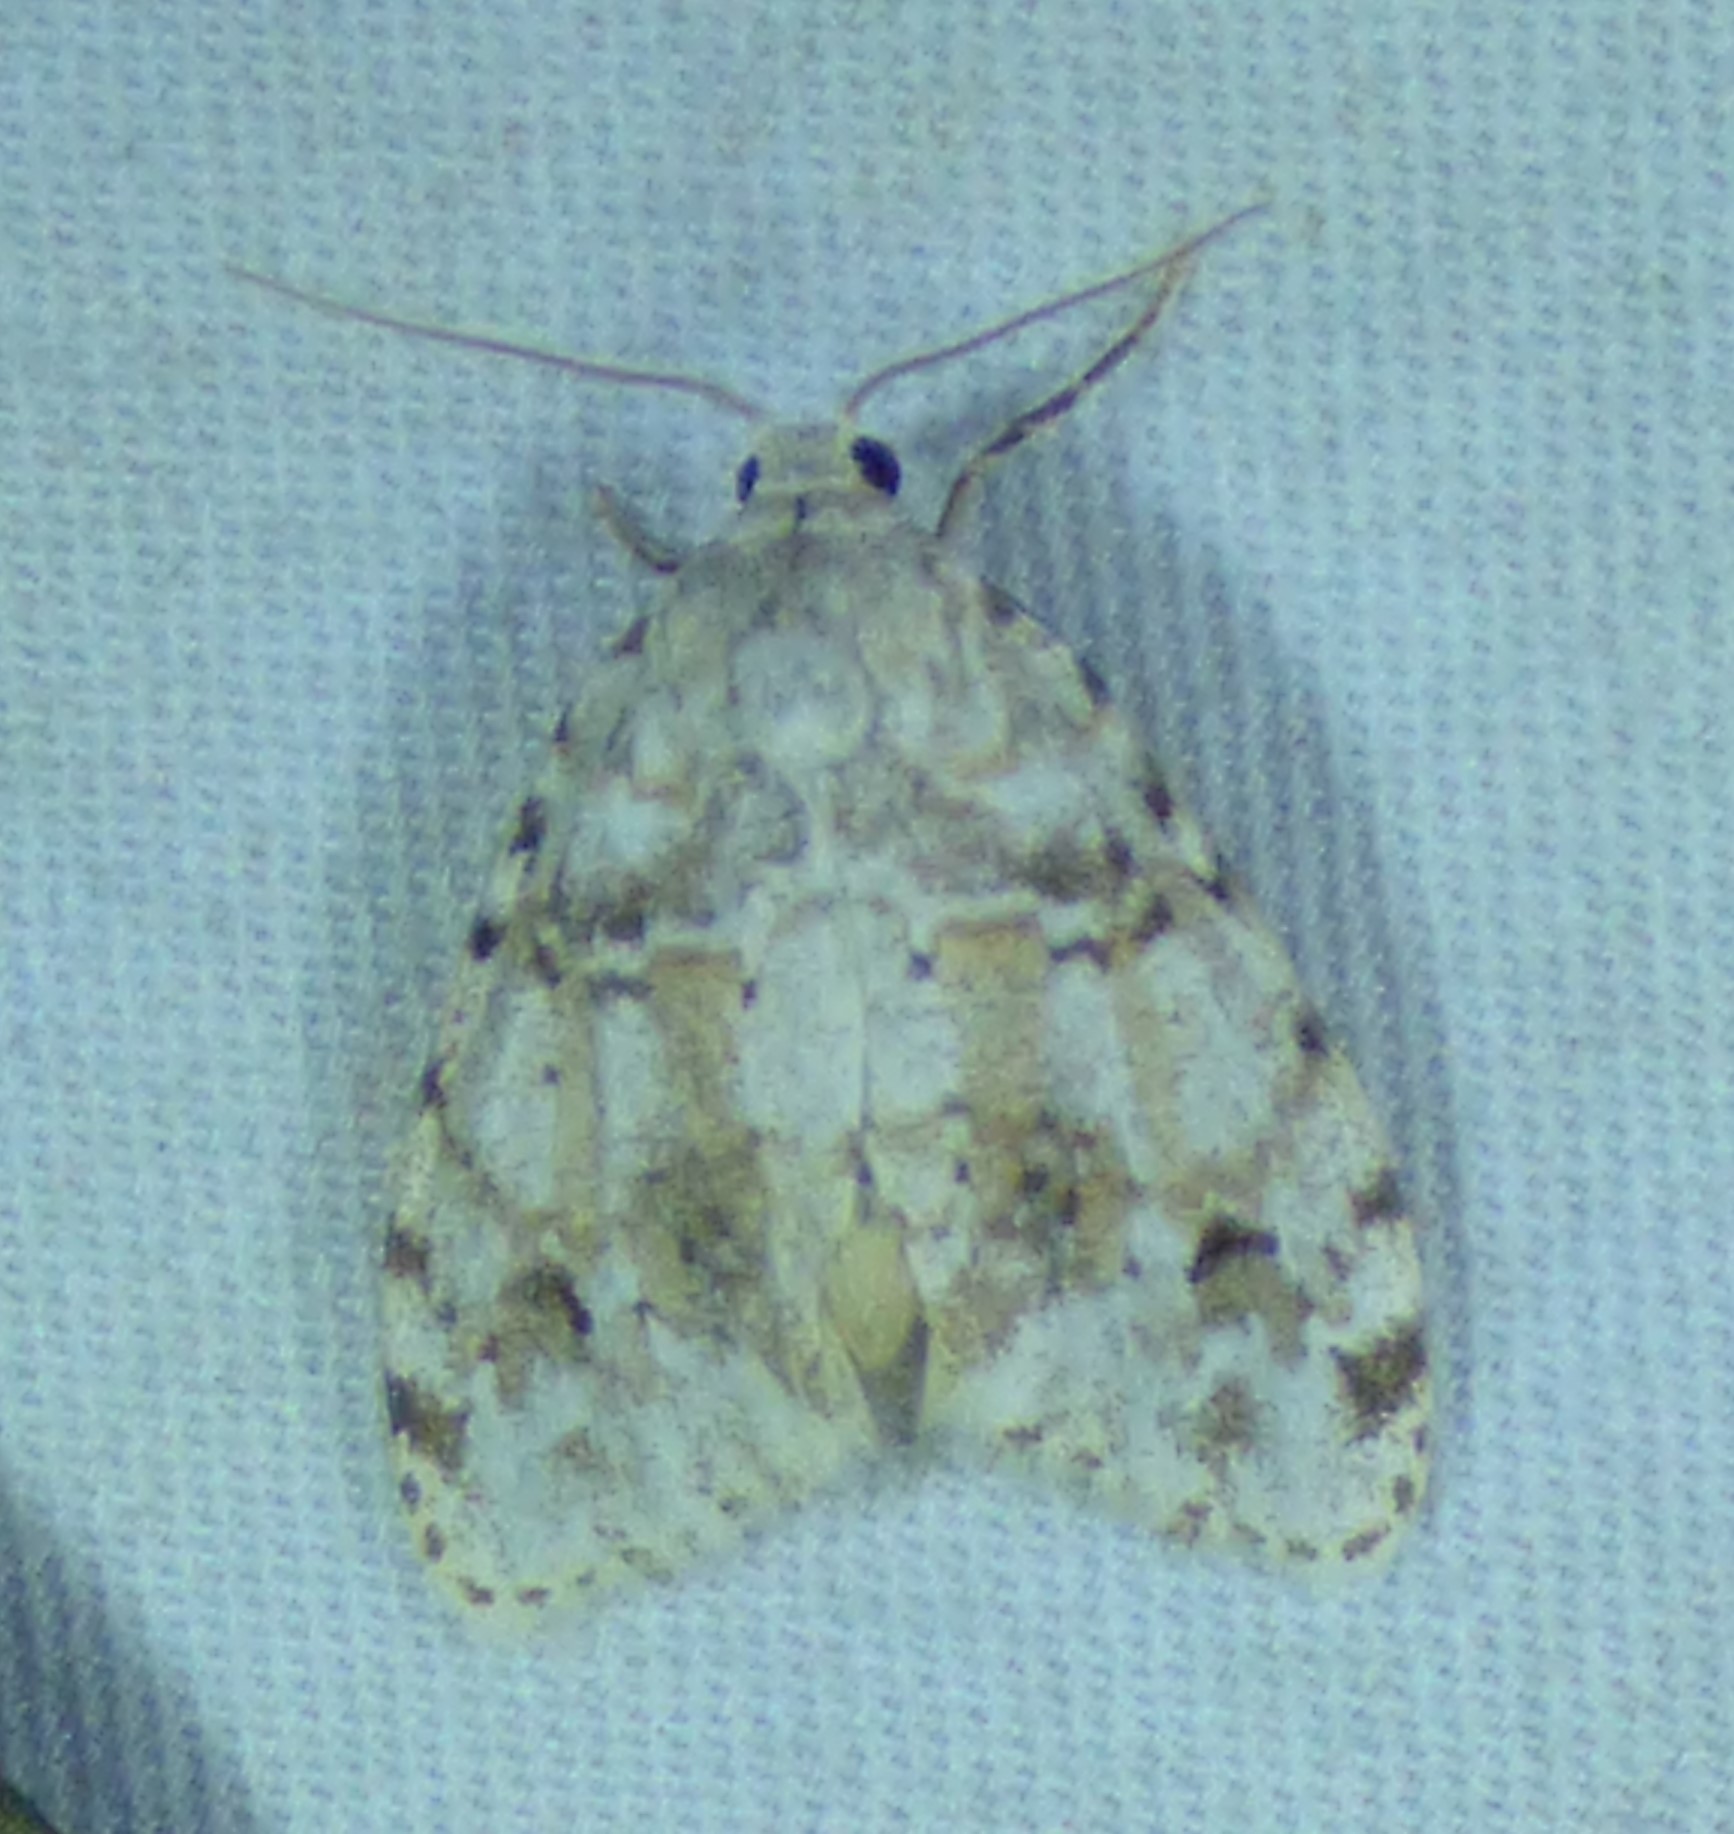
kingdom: Animalia
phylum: Arthropoda
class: Insecta
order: Lepidoptera
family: Erebidae
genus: Clemensia
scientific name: Clemensia albata
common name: Little white lichen moth
